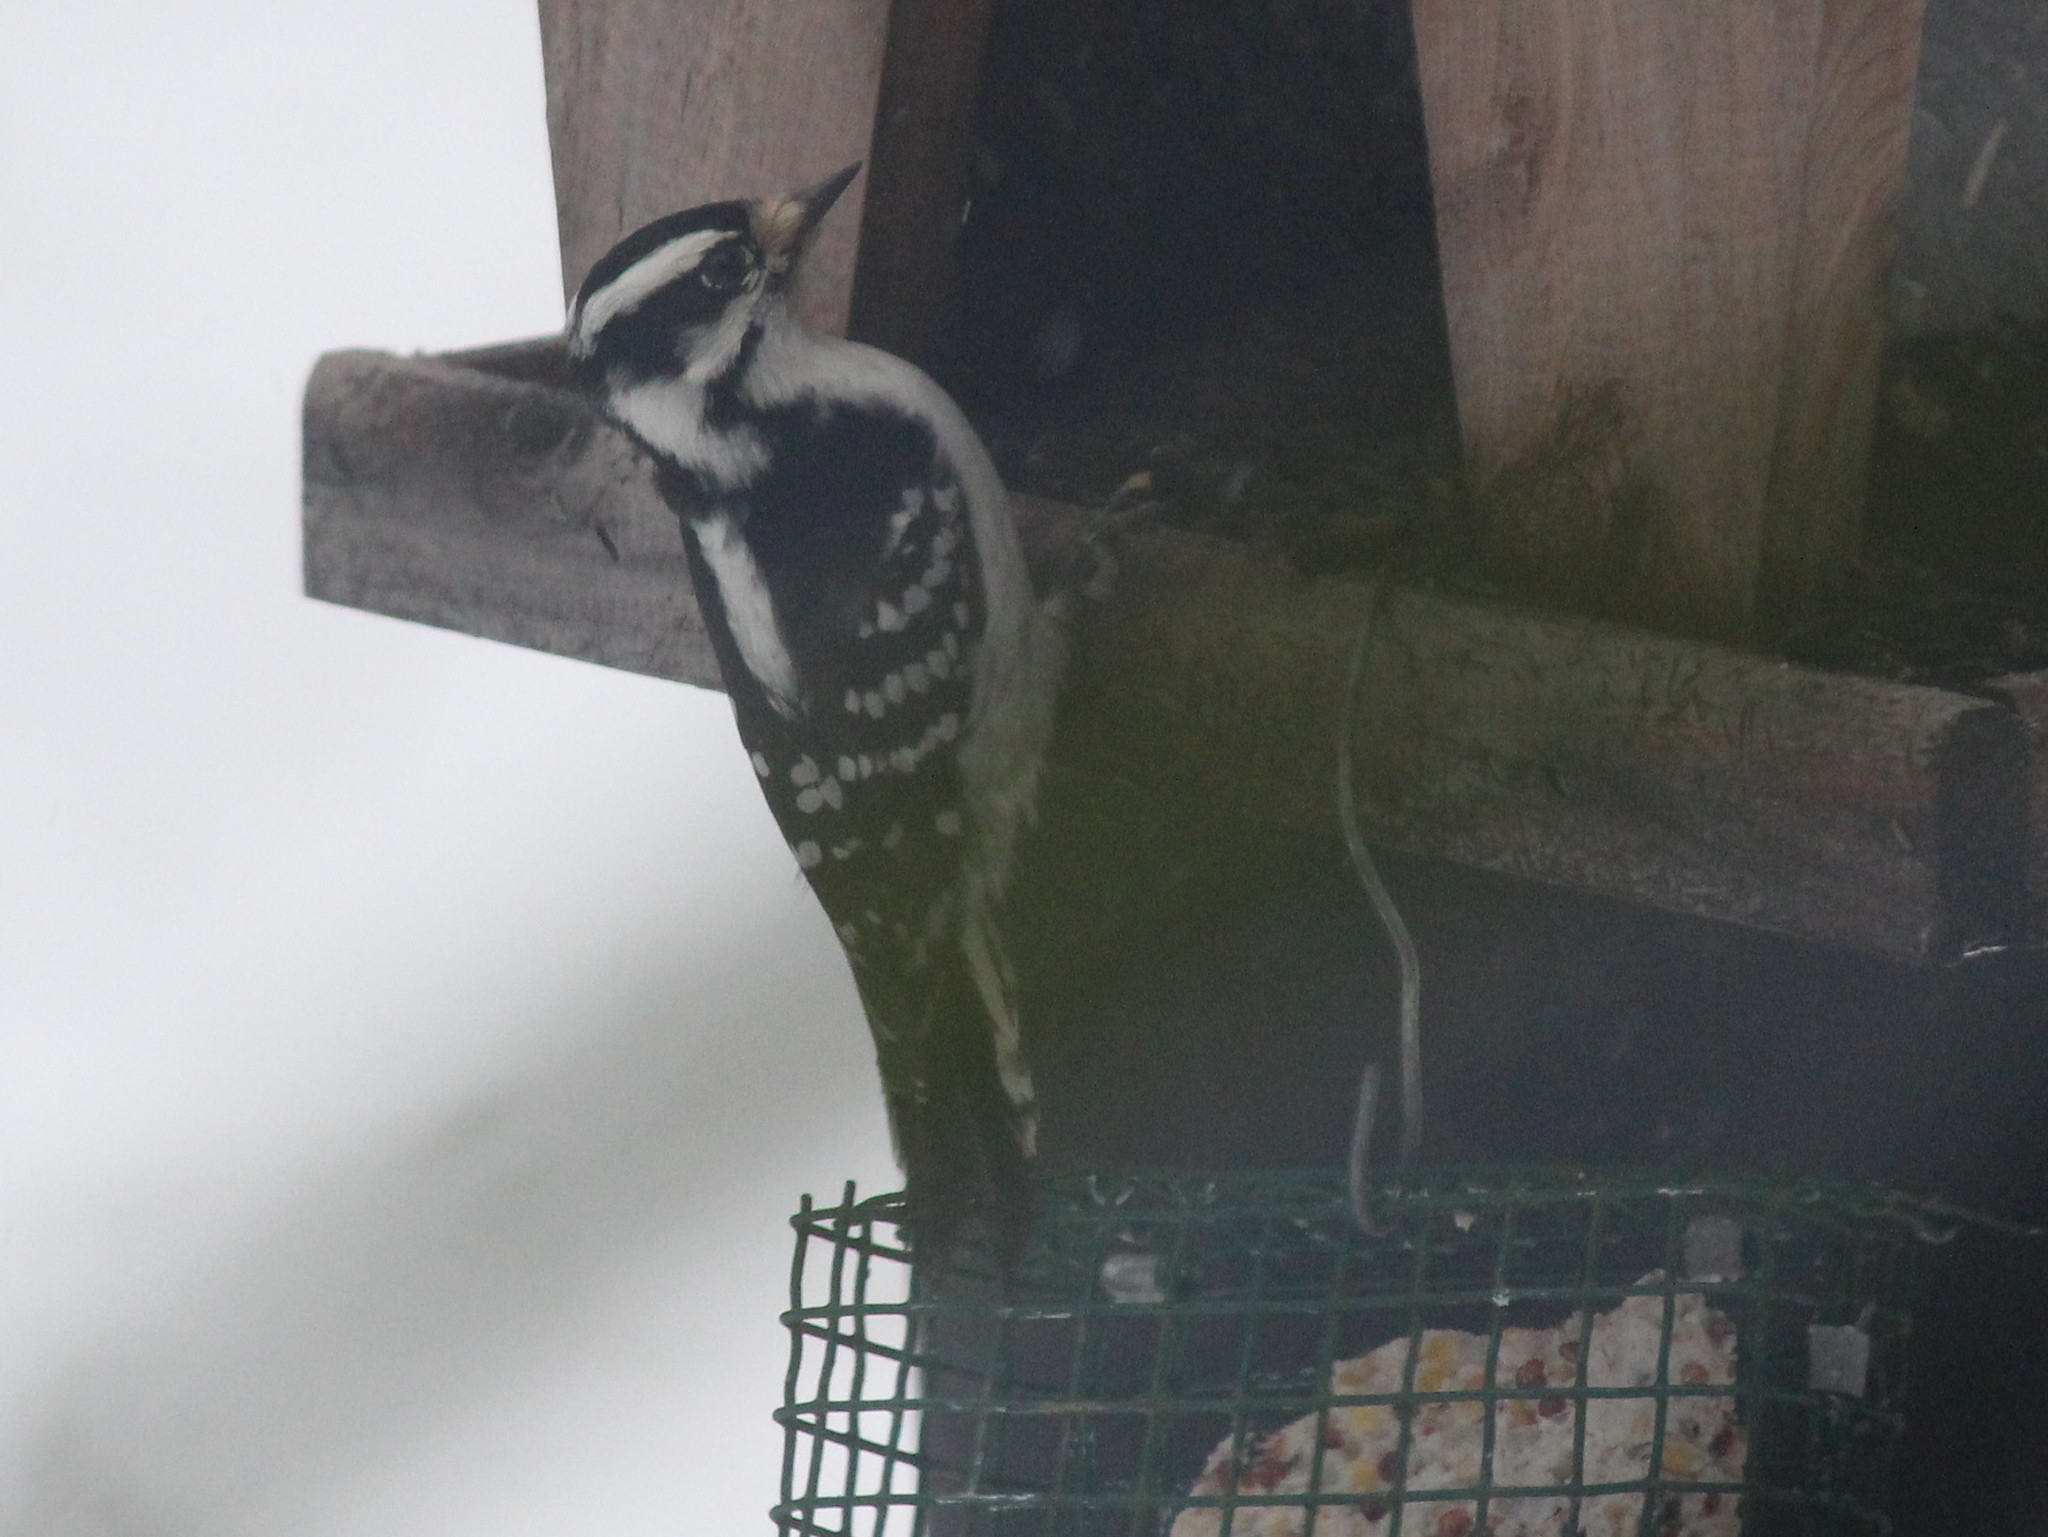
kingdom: Animalia
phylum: Chordata
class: Aves
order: Piciformes
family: Picidae
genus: Dryobates
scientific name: Dryobates pubescens
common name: Downy woodpecker
